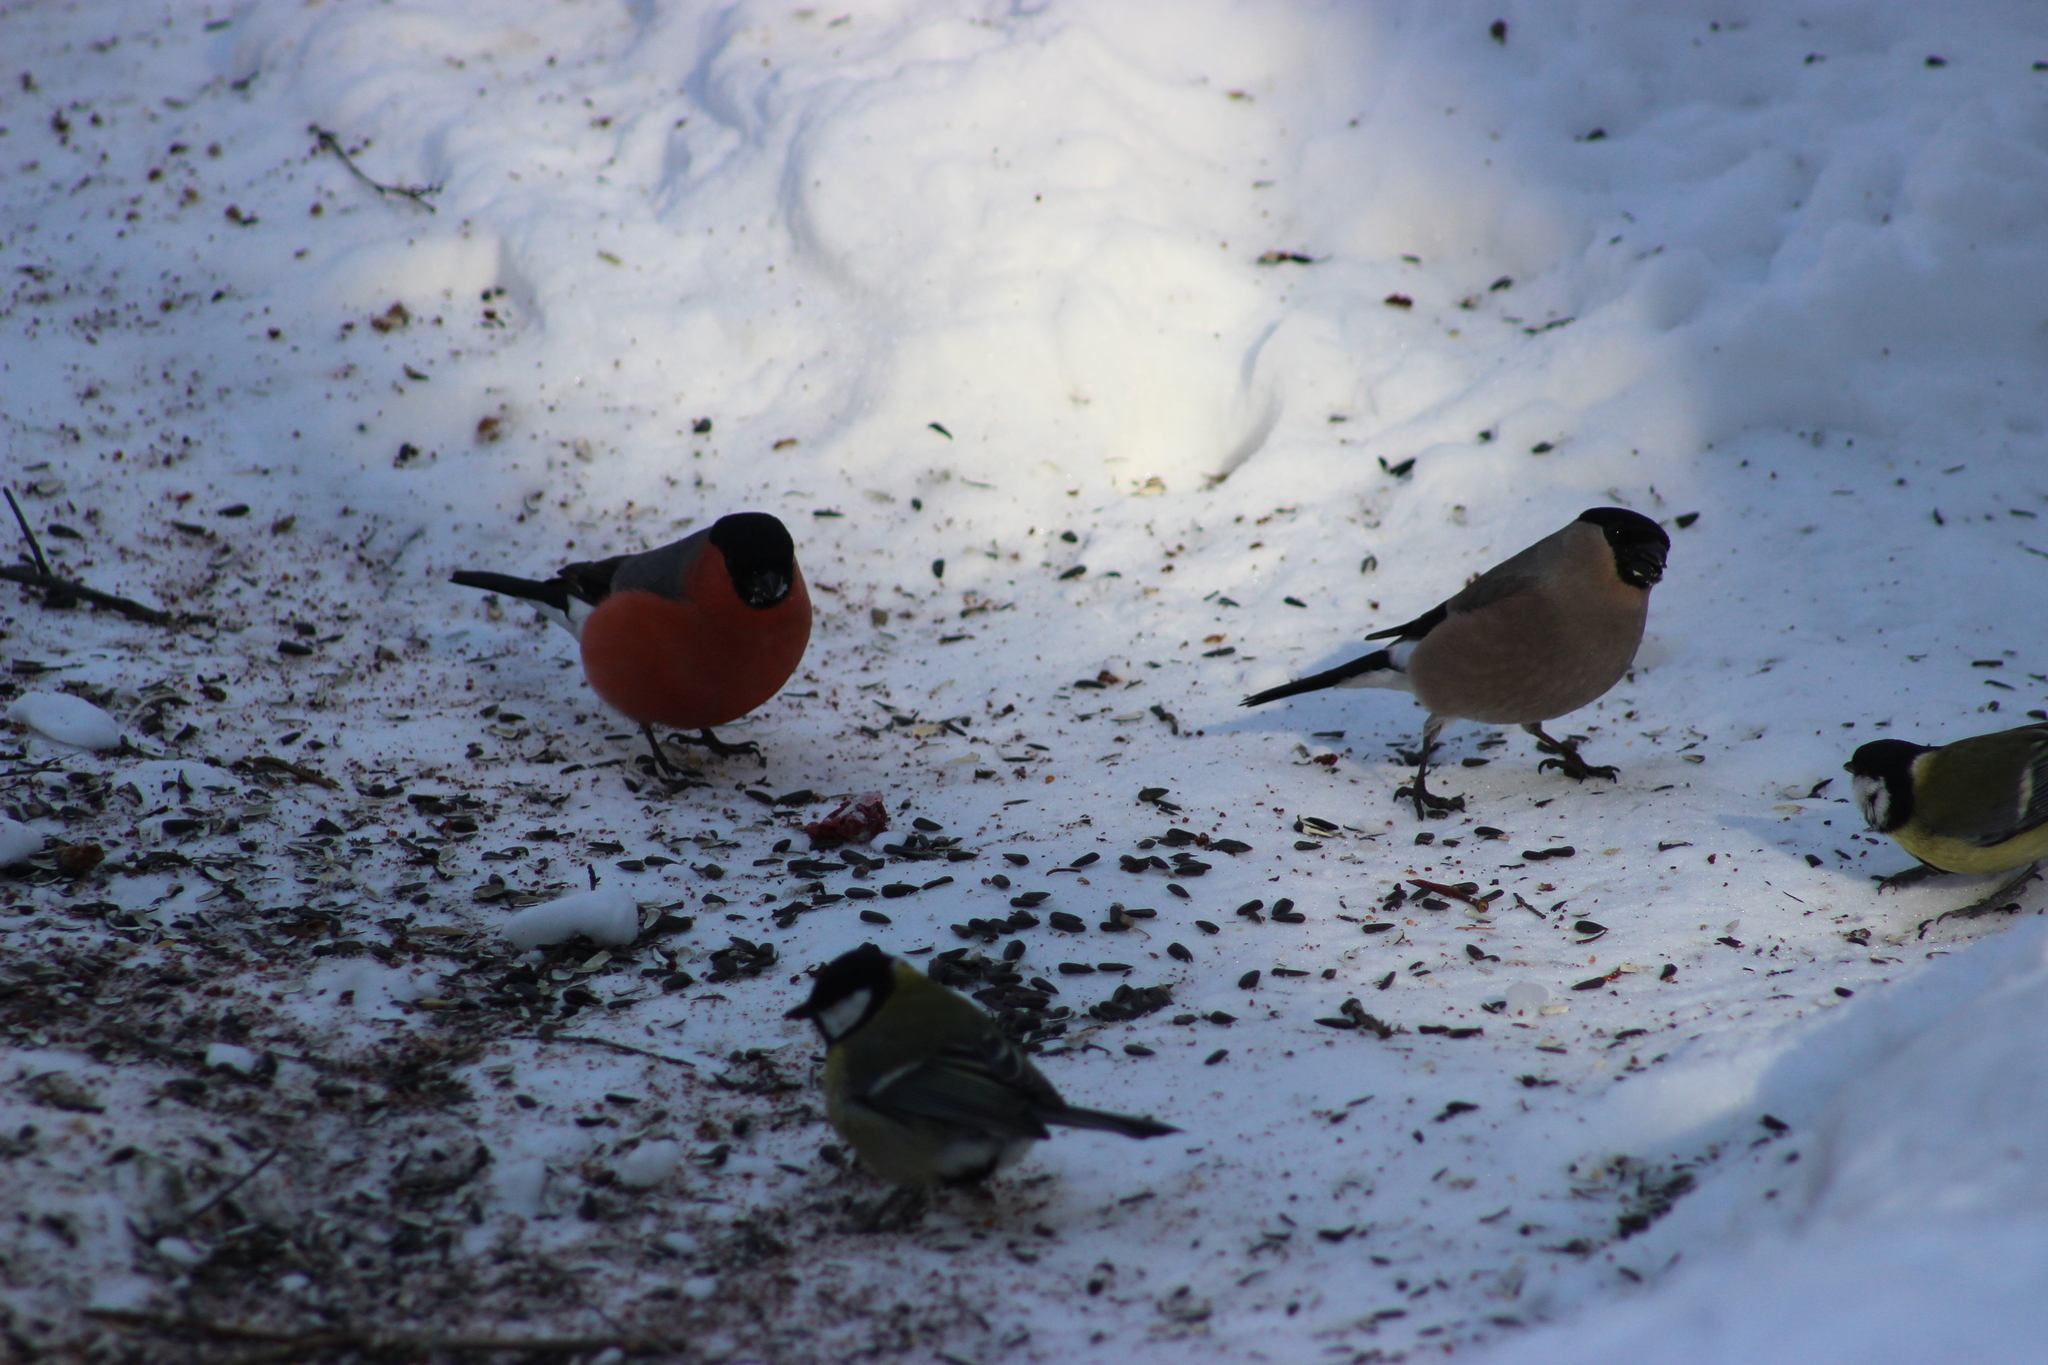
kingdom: Animalia
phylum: Chordata
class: Aves
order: Passeriformes
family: Paridae
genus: Parus
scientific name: Parus major
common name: Great tit
